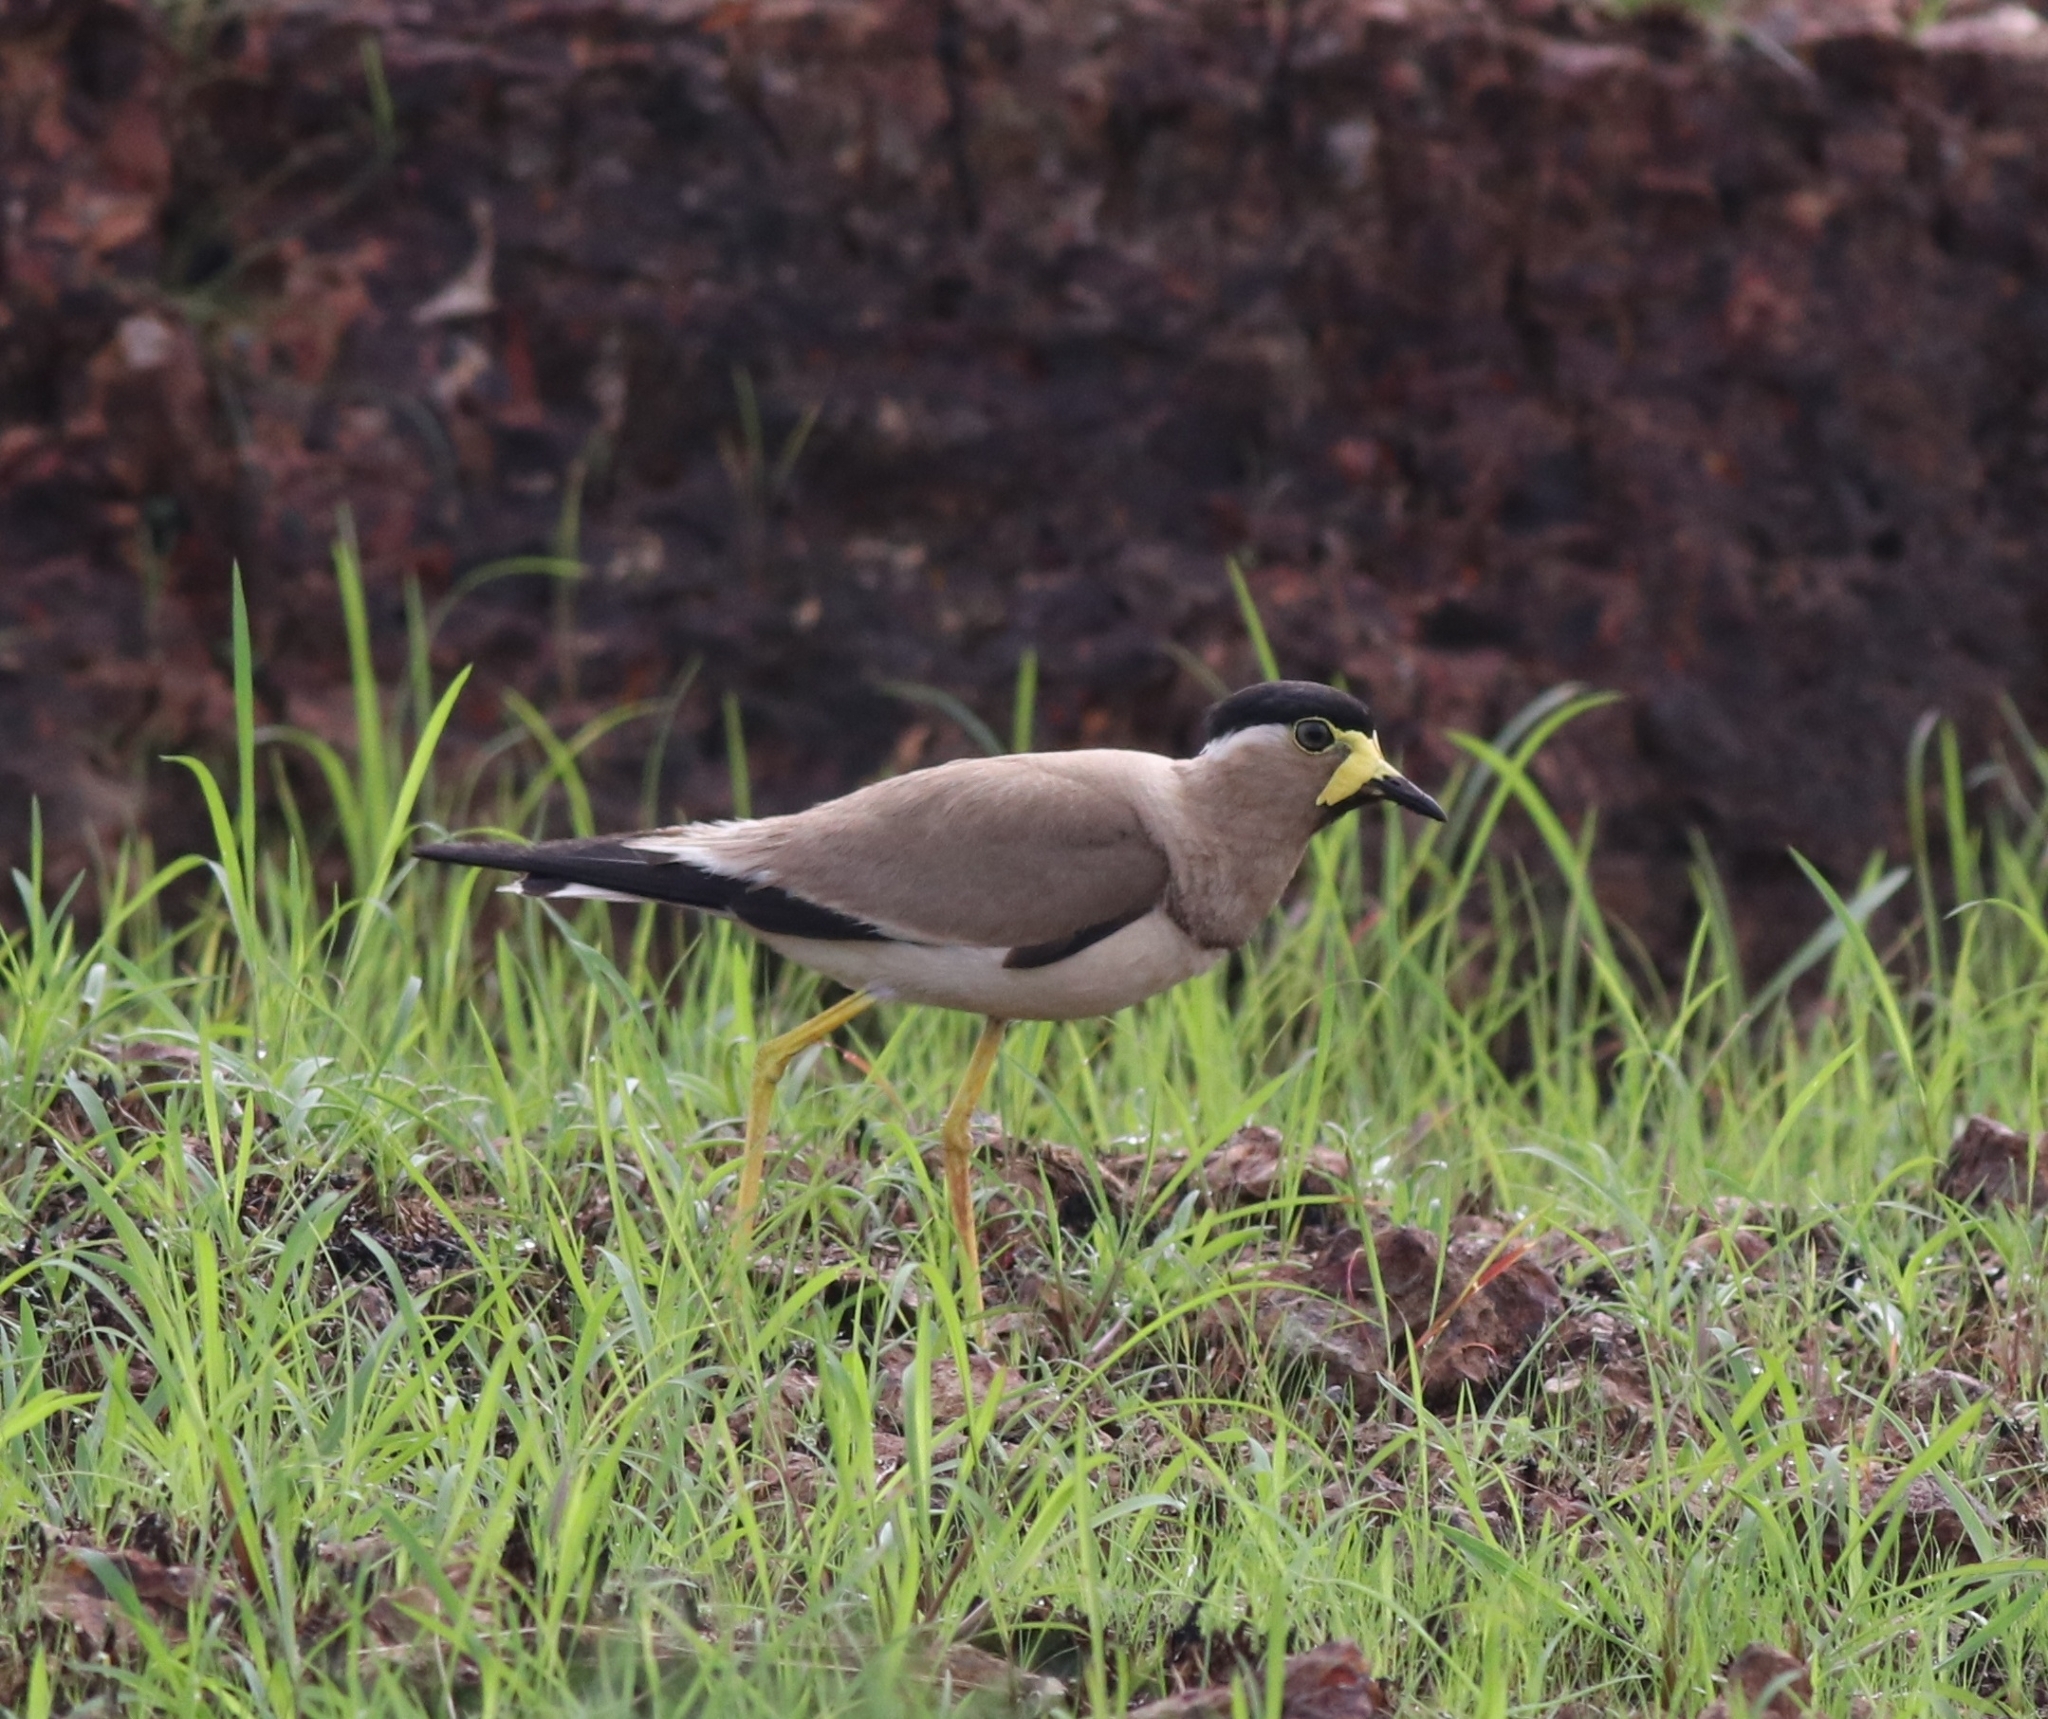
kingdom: Animalia
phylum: Chordata
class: Aves
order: Charadriiformes
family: Charadriidae
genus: Vanellus
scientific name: Vanellus malabaricus
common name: Yellow-wattled lapwing
